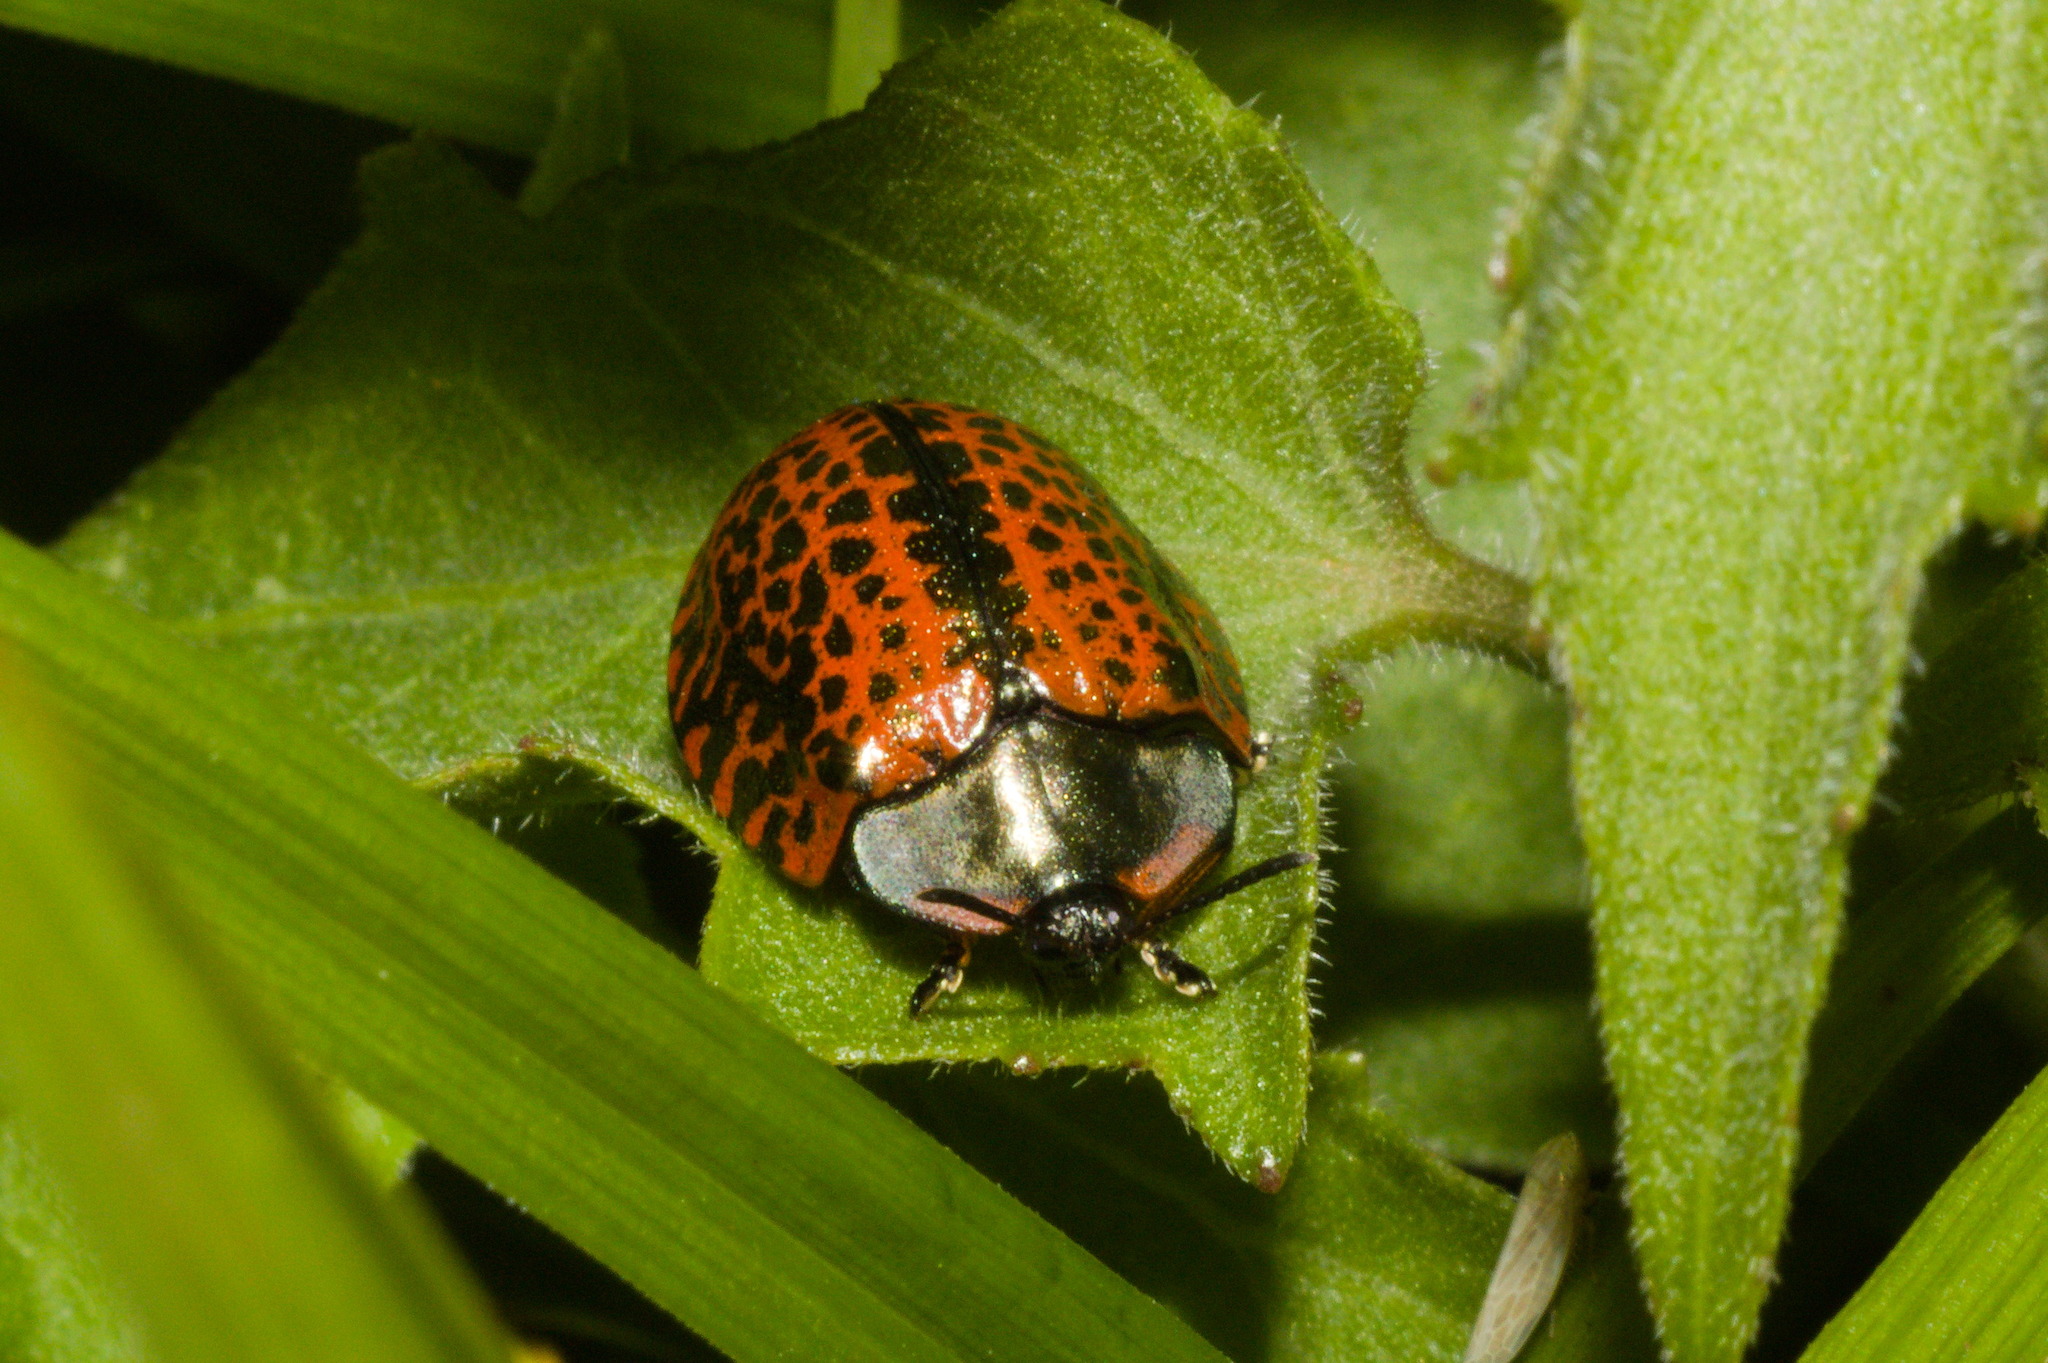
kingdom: Animalia
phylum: Arthropoda
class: Insecta
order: Coleoptera
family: Chrysomelidae
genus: Stolas
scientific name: Stolas lacordairei
